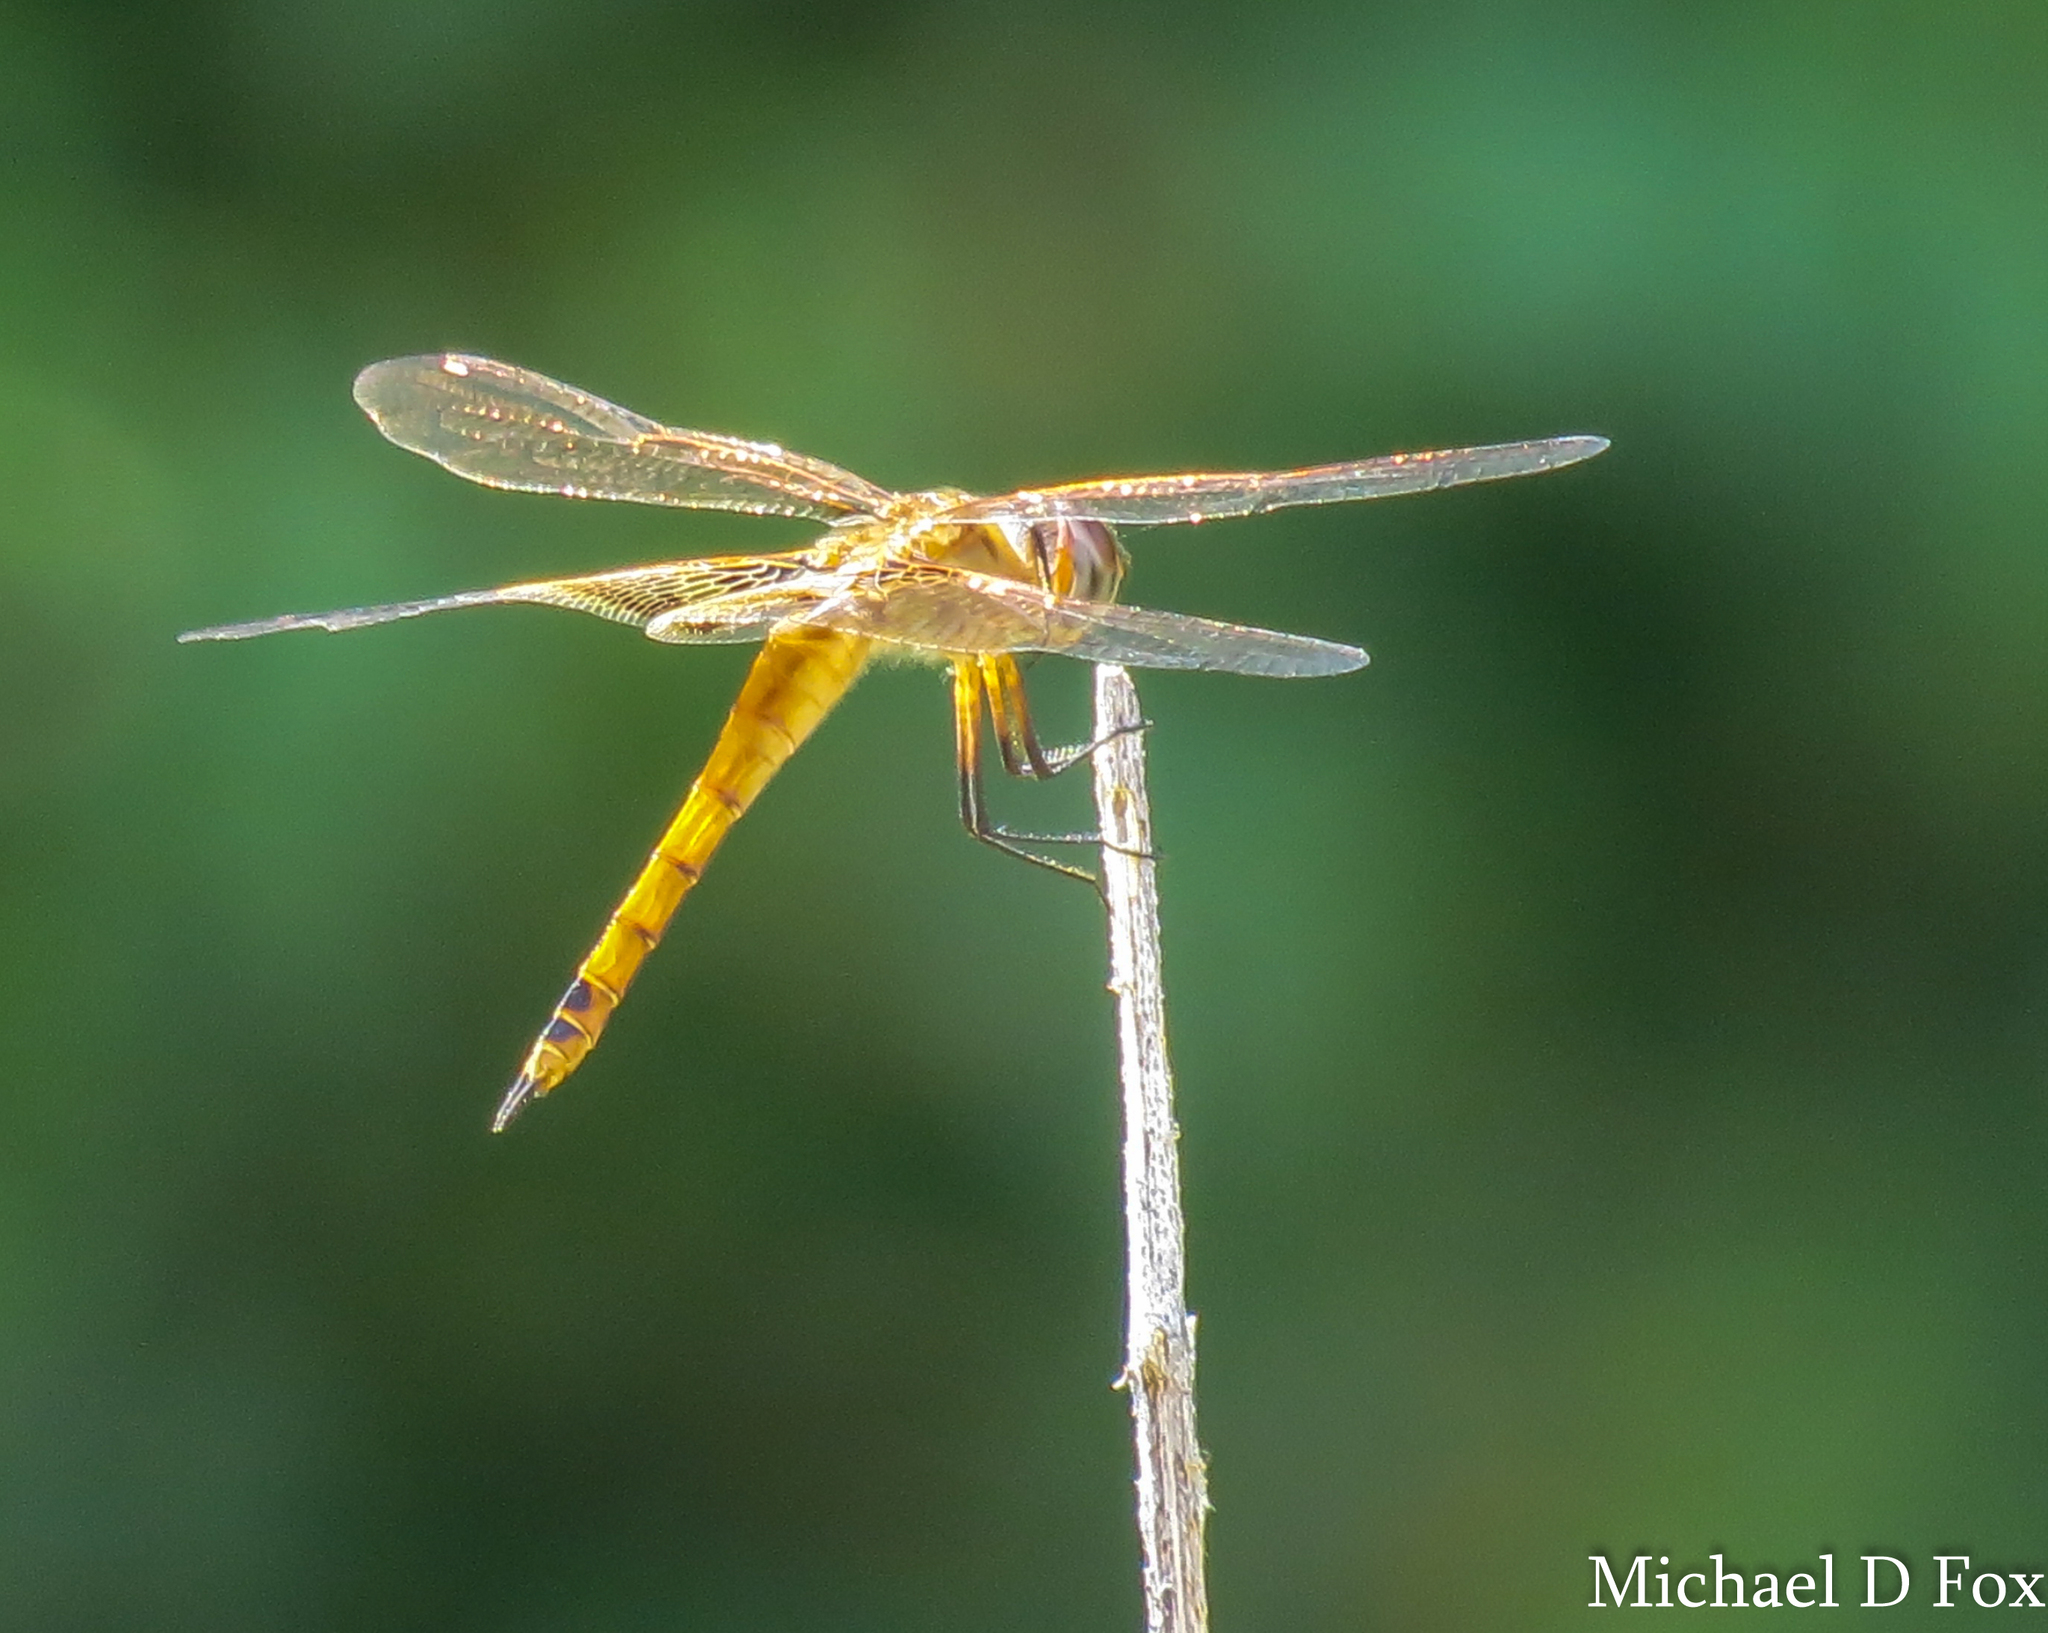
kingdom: Animalia
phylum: Arthropoda
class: Insecta
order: Odonata
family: Libellulidae
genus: Tramea
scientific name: Tramea onusta
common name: Red saddlebags
